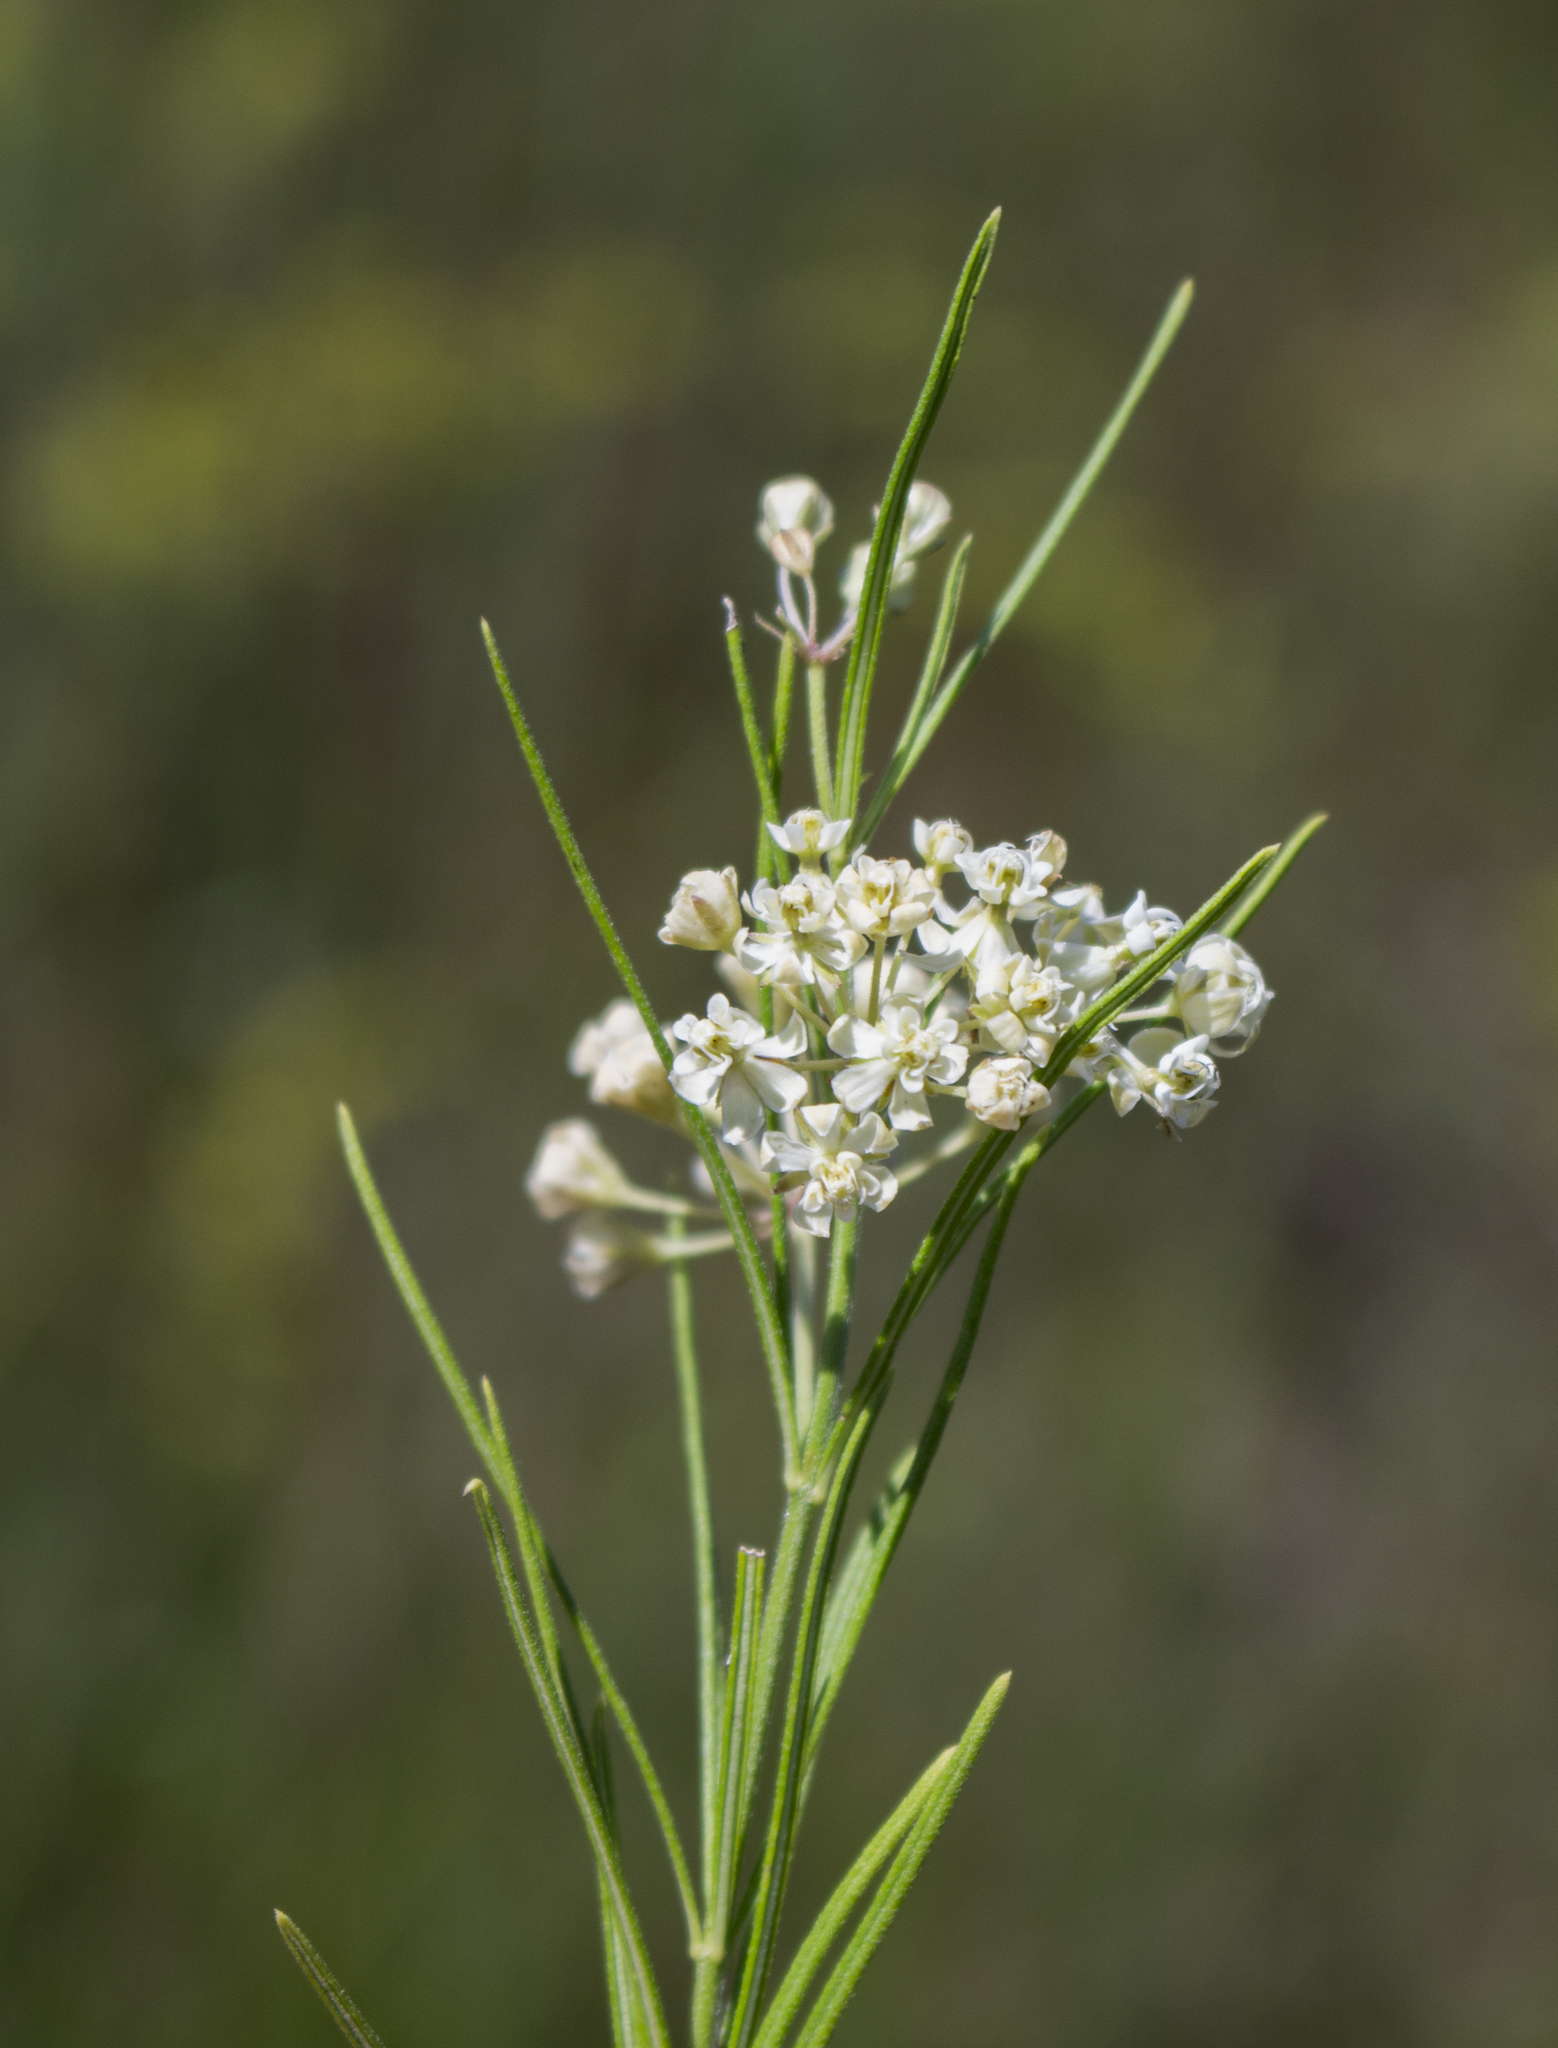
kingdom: Plantae
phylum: Tracheophyta
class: Magnoliopsida
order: Gentianales
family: Apocynaceae
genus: Asclepias
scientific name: Asclepias verticillata
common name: Eastern whorled milkweed
